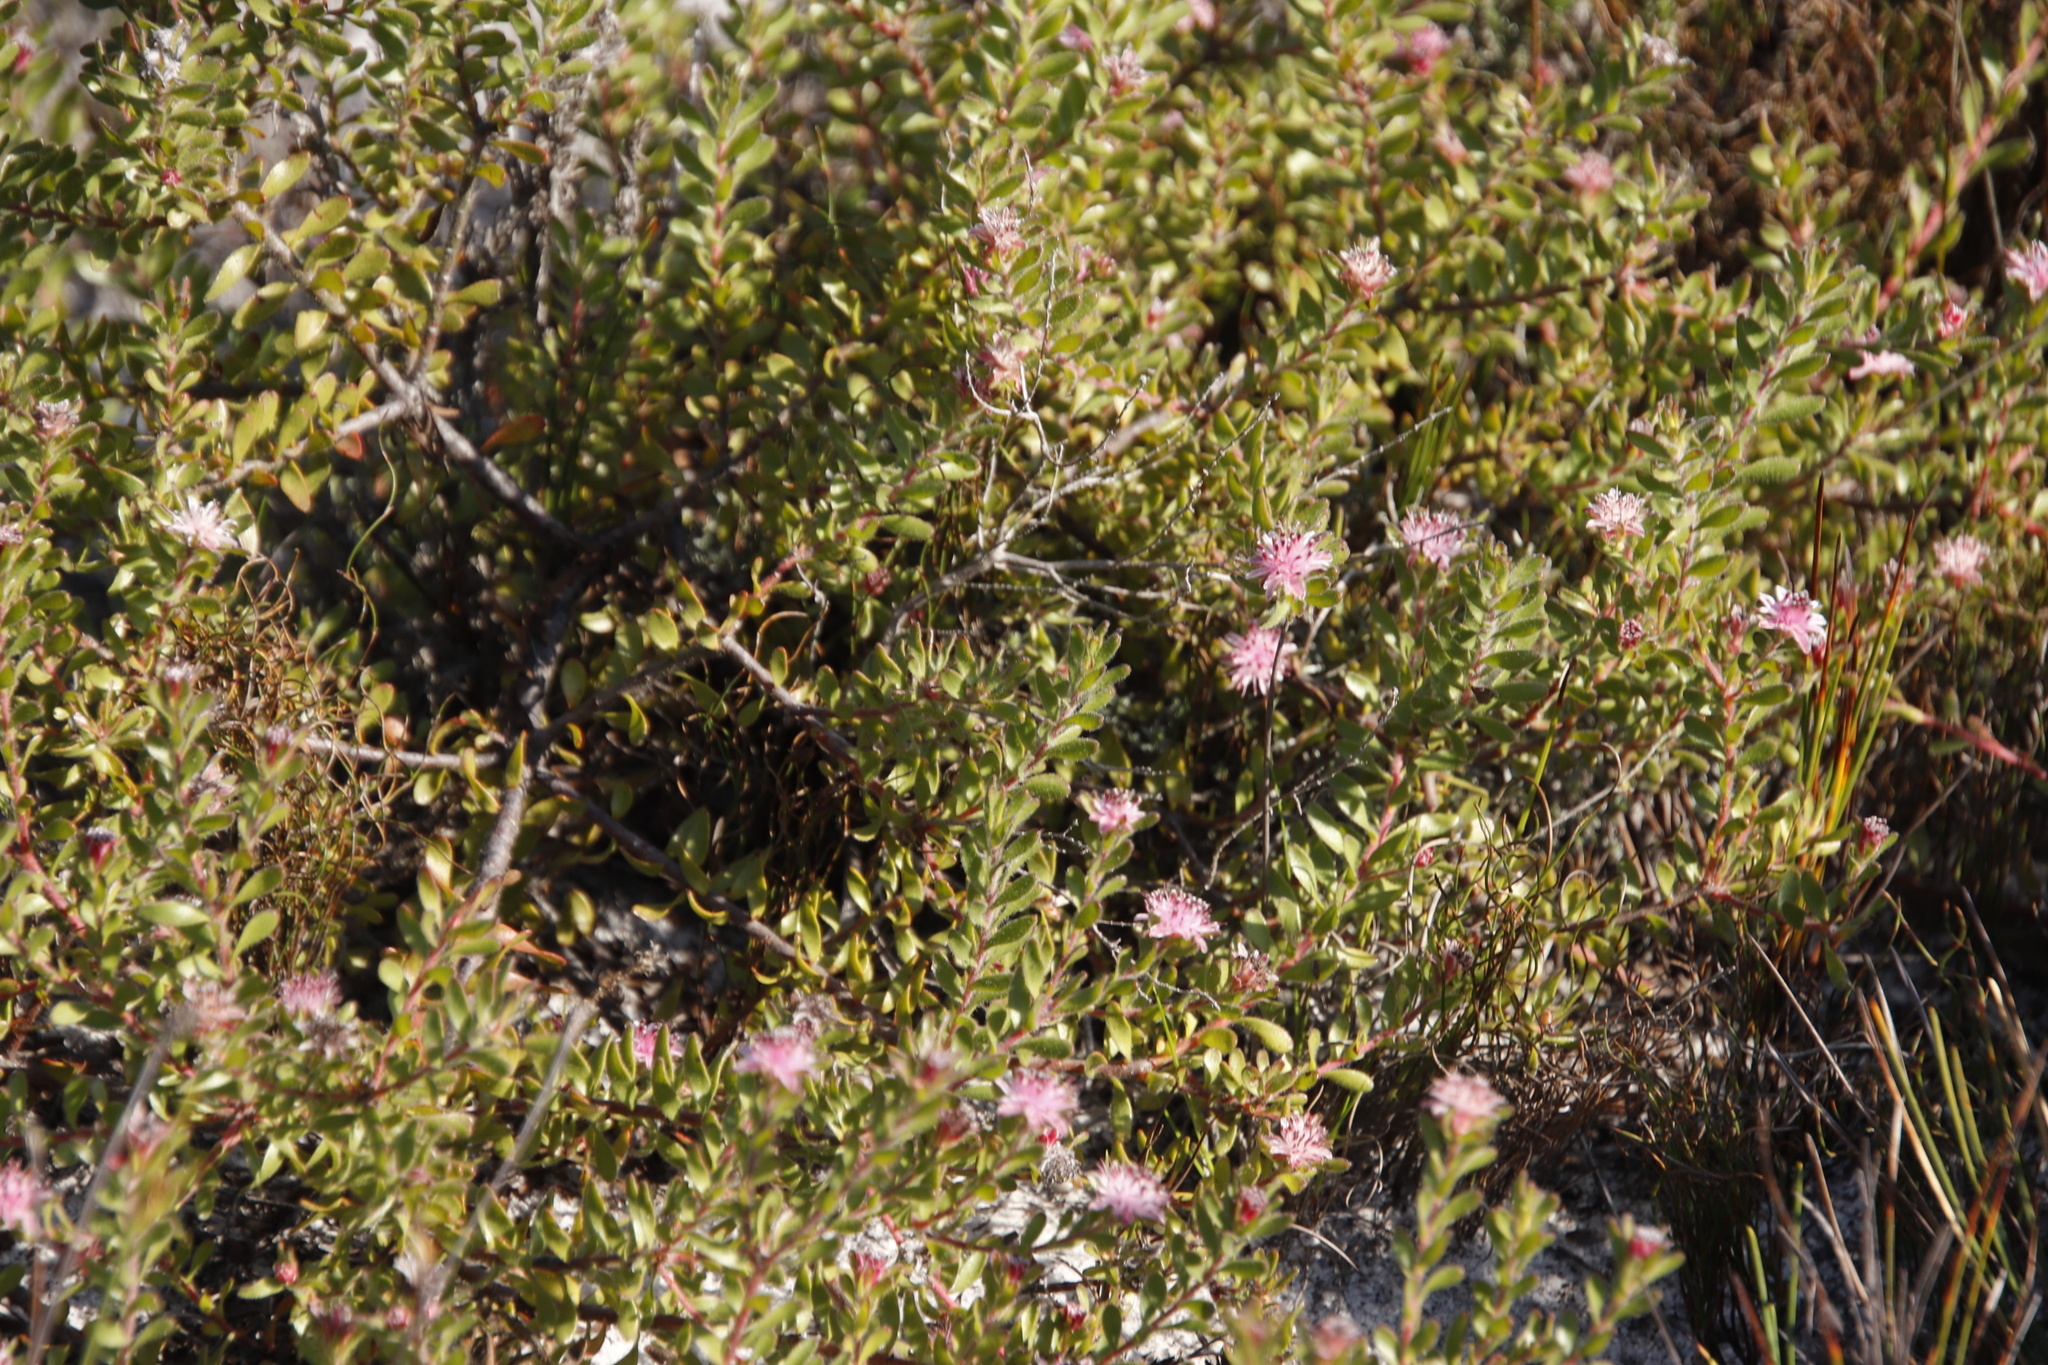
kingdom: Plantae
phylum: Tracheophyta
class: Magnoliopsida
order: Proteales
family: Proteaceae
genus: Diastella
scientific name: Diastella divaricata
